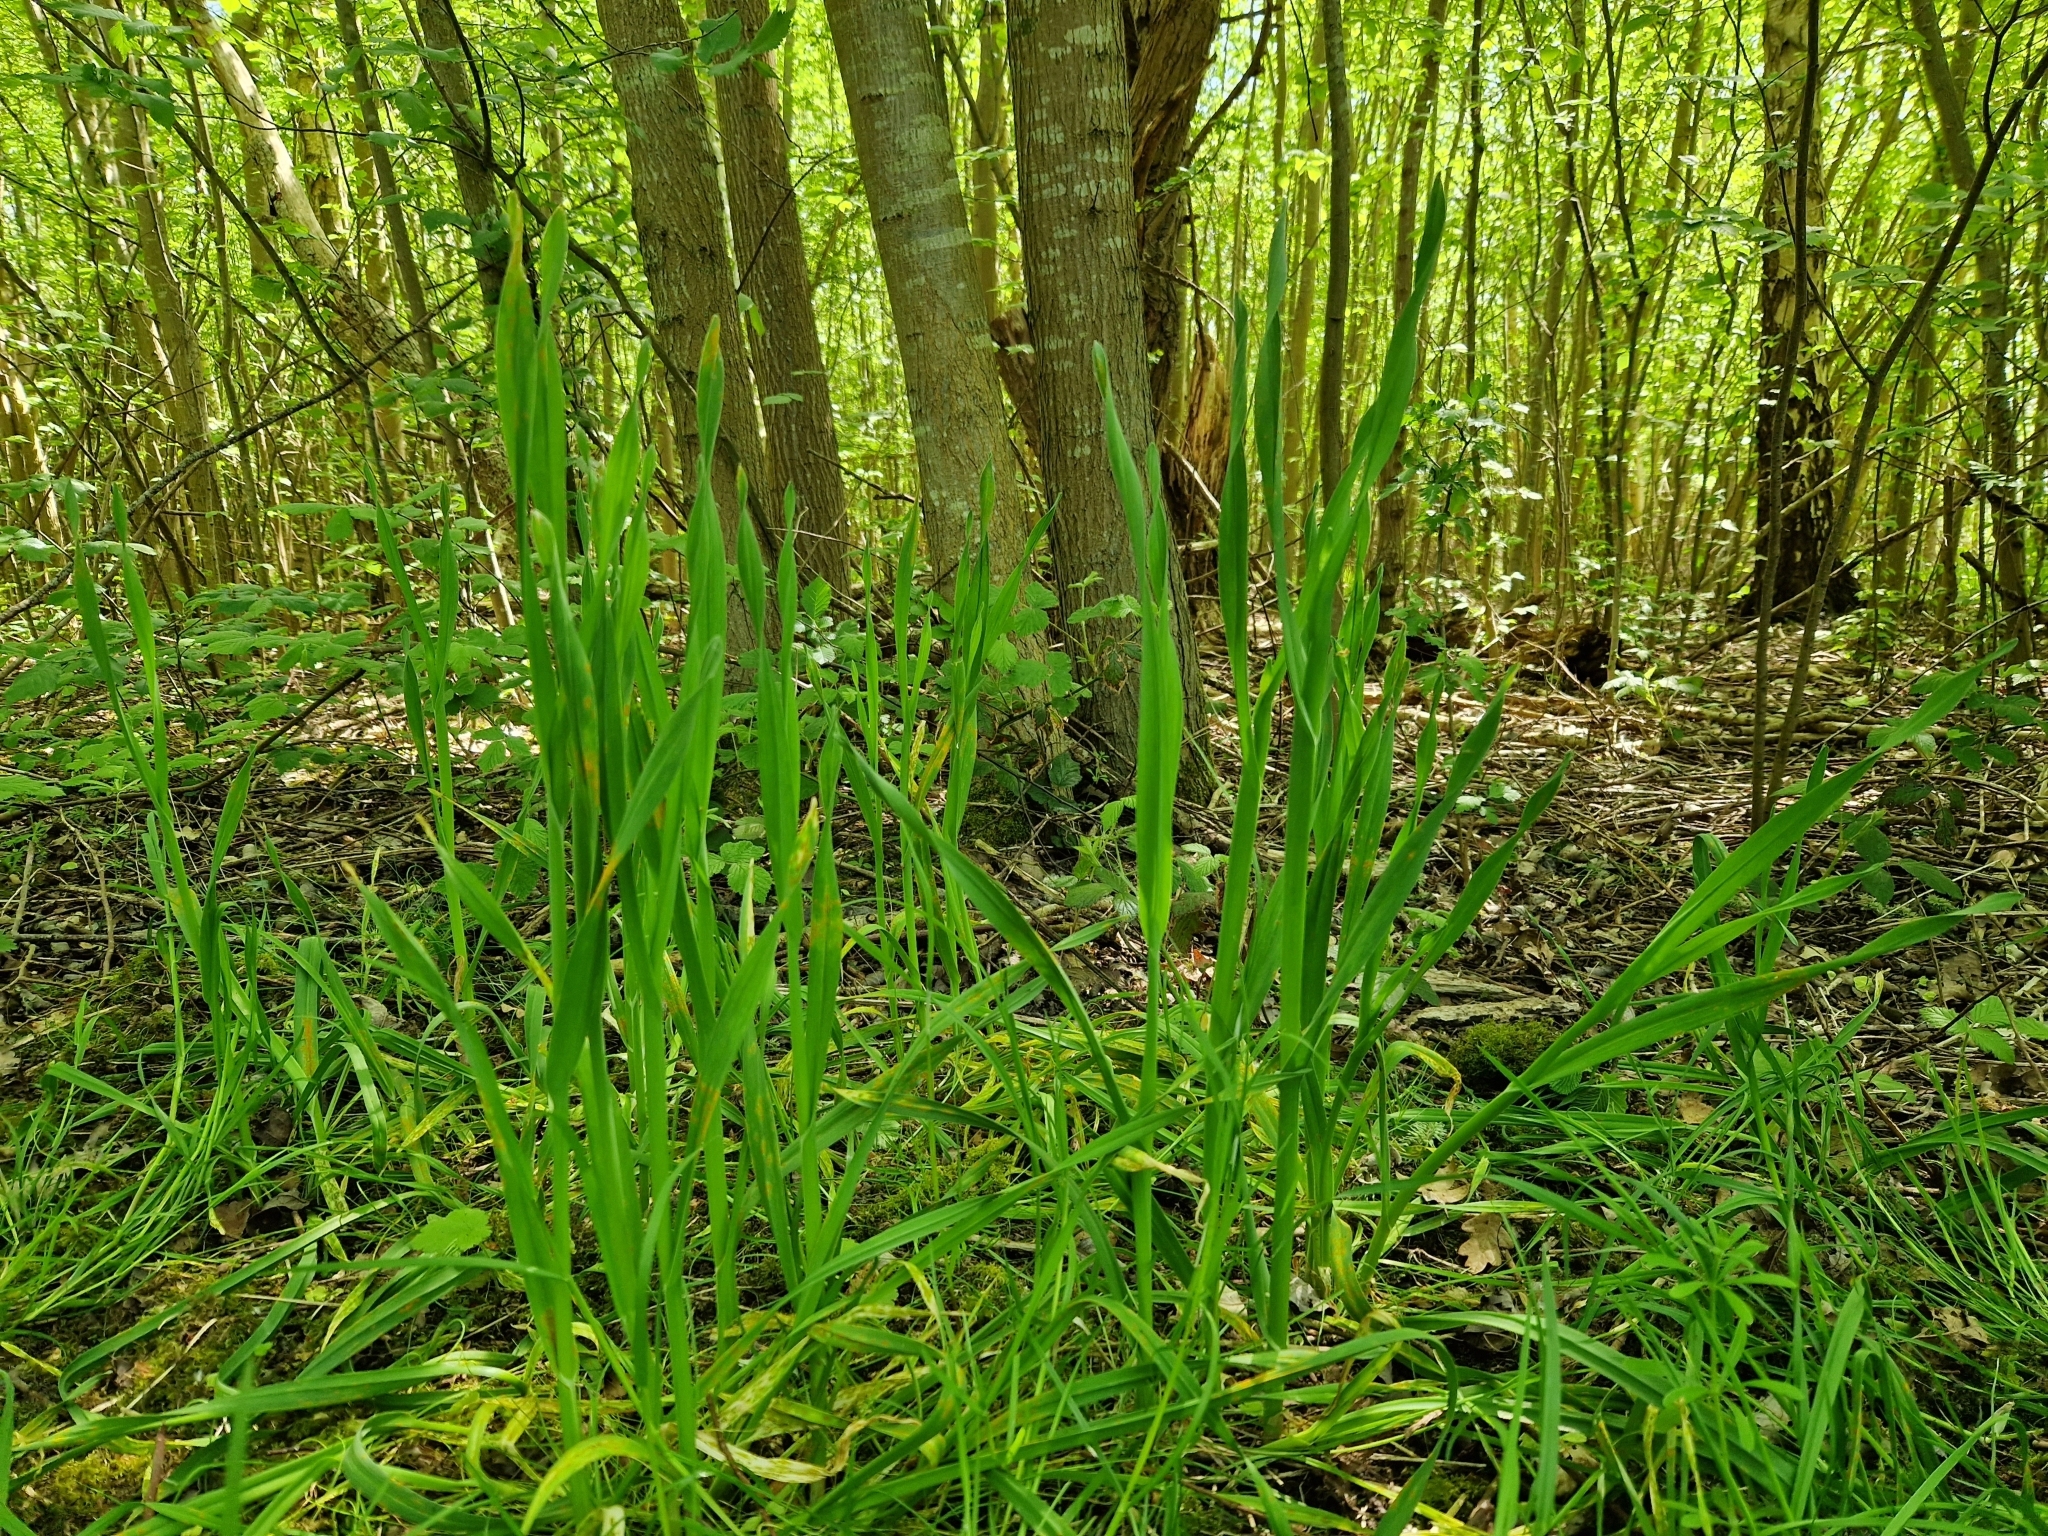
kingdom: Plantae
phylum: Tracheophyta
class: Liliopsida
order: Asparagales
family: Amaryllidaceae
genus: Allium
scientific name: Allium scorodoprasum
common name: Sand leek
